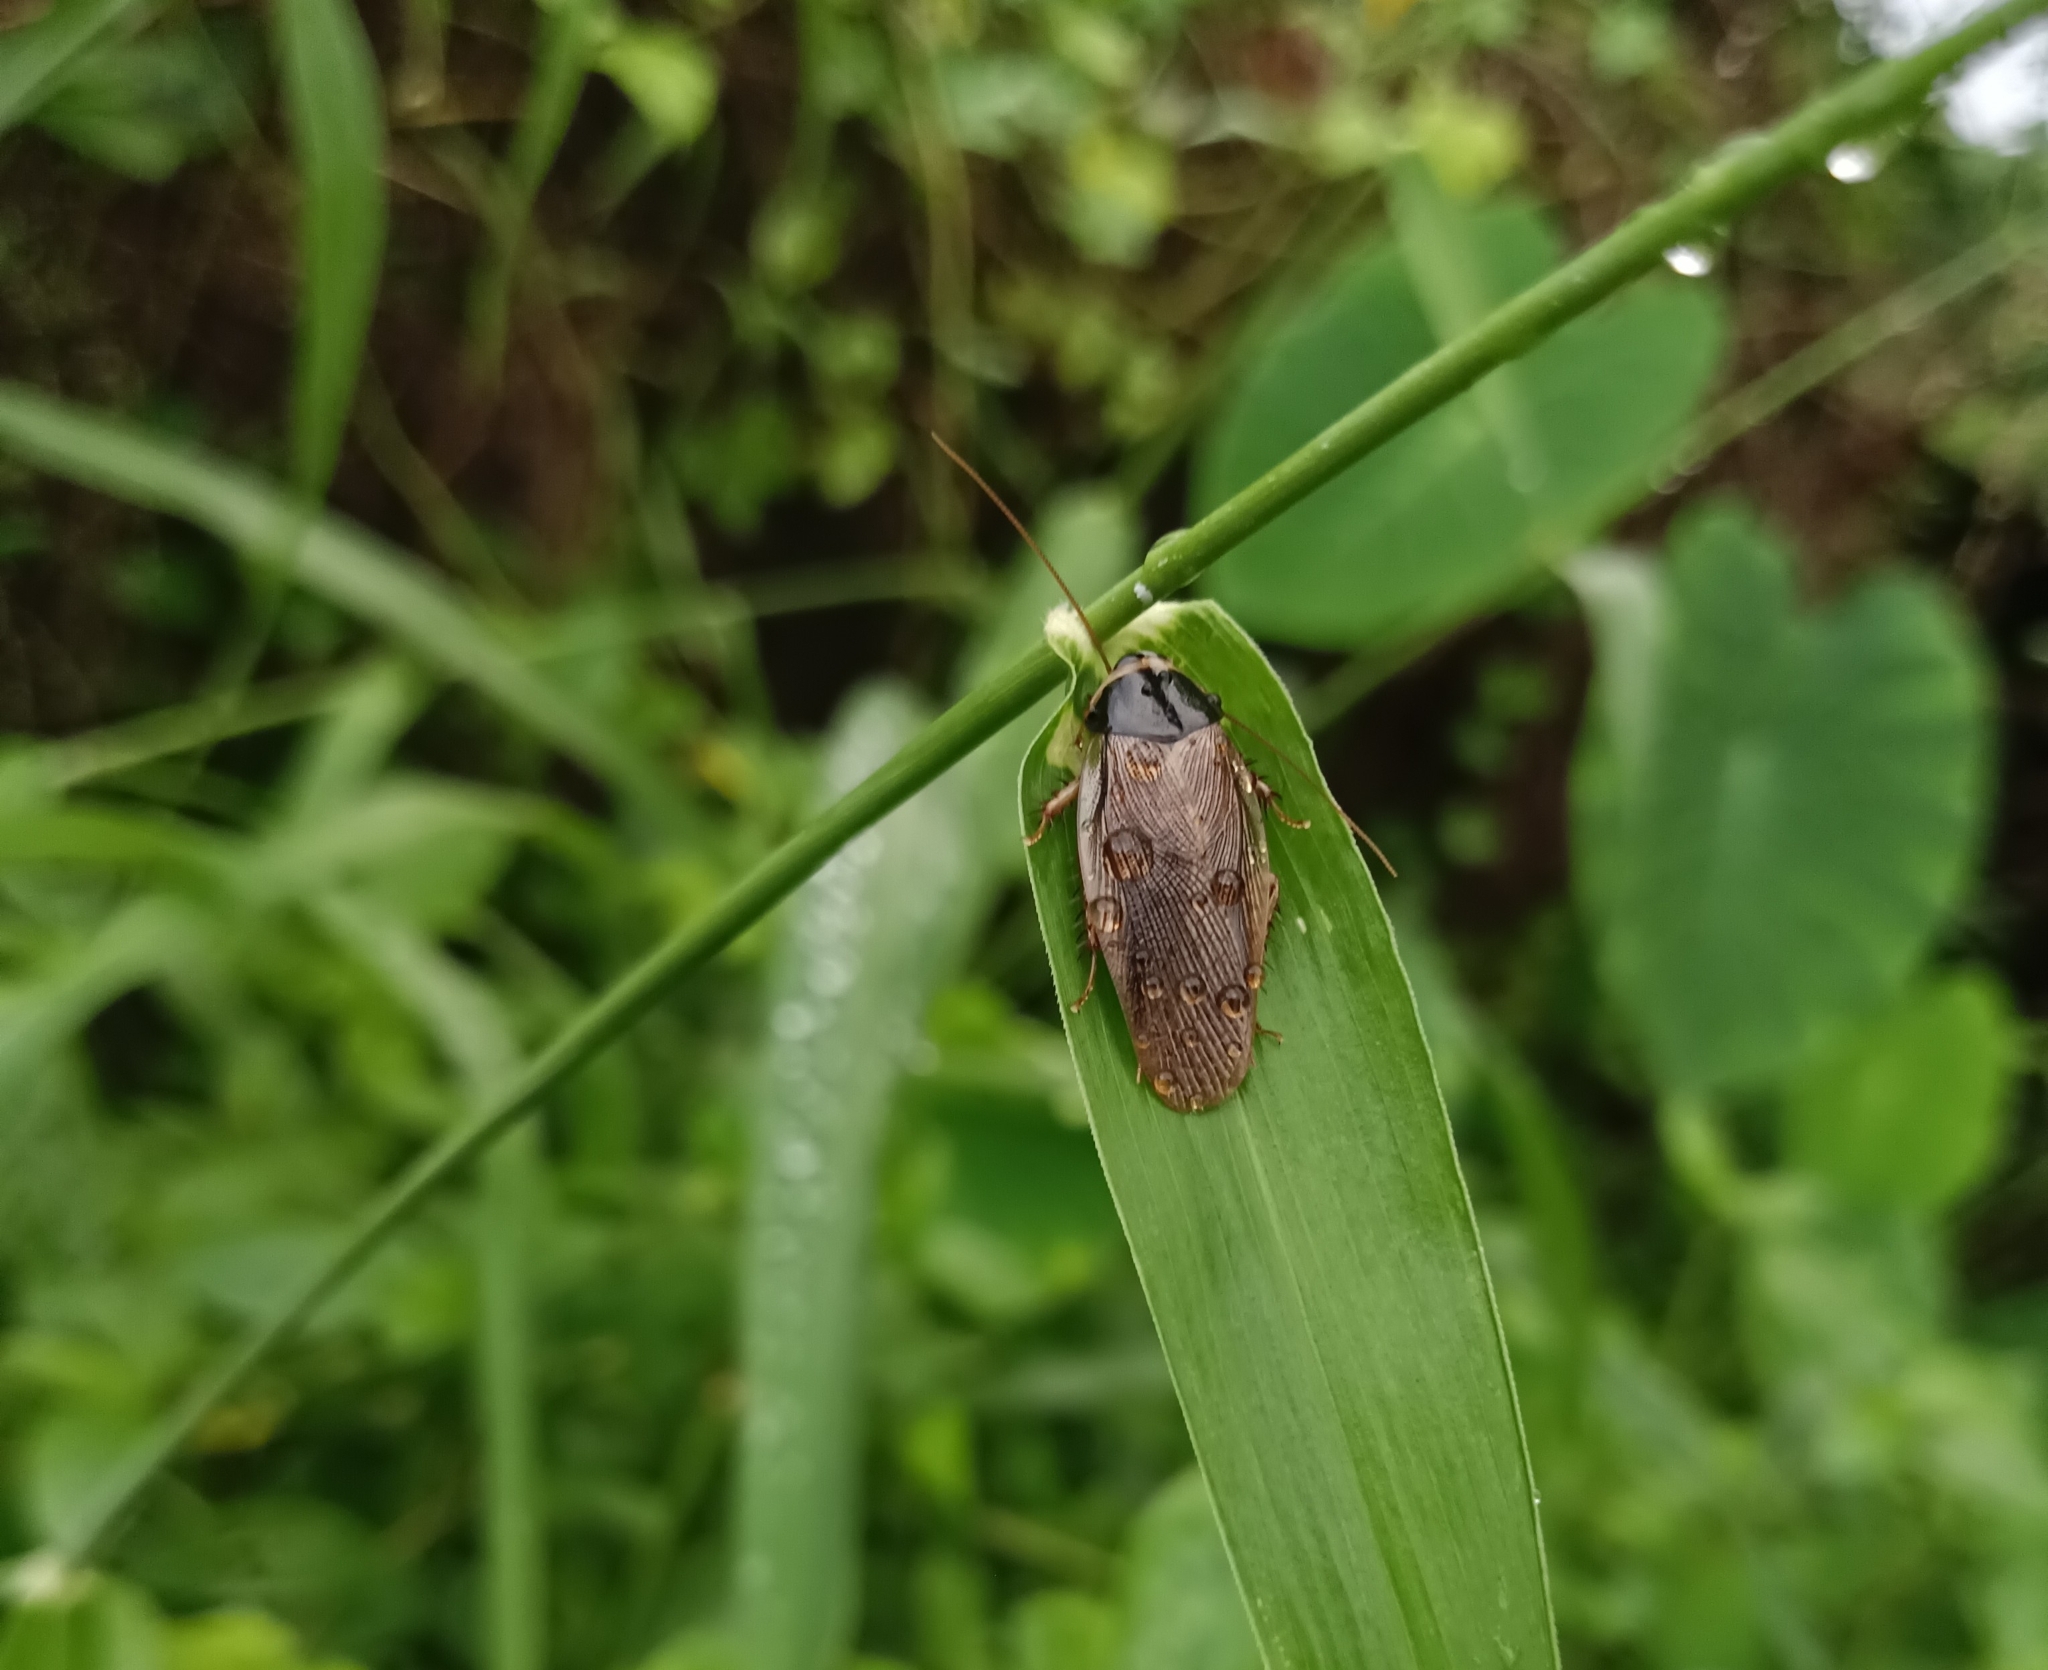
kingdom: Animalia
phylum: Arthropoda
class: Insecta
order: Blattodea
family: Blaberidae
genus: Pycnoscelus
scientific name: Pycnoscelus indicus
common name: Burrowing cockroach
